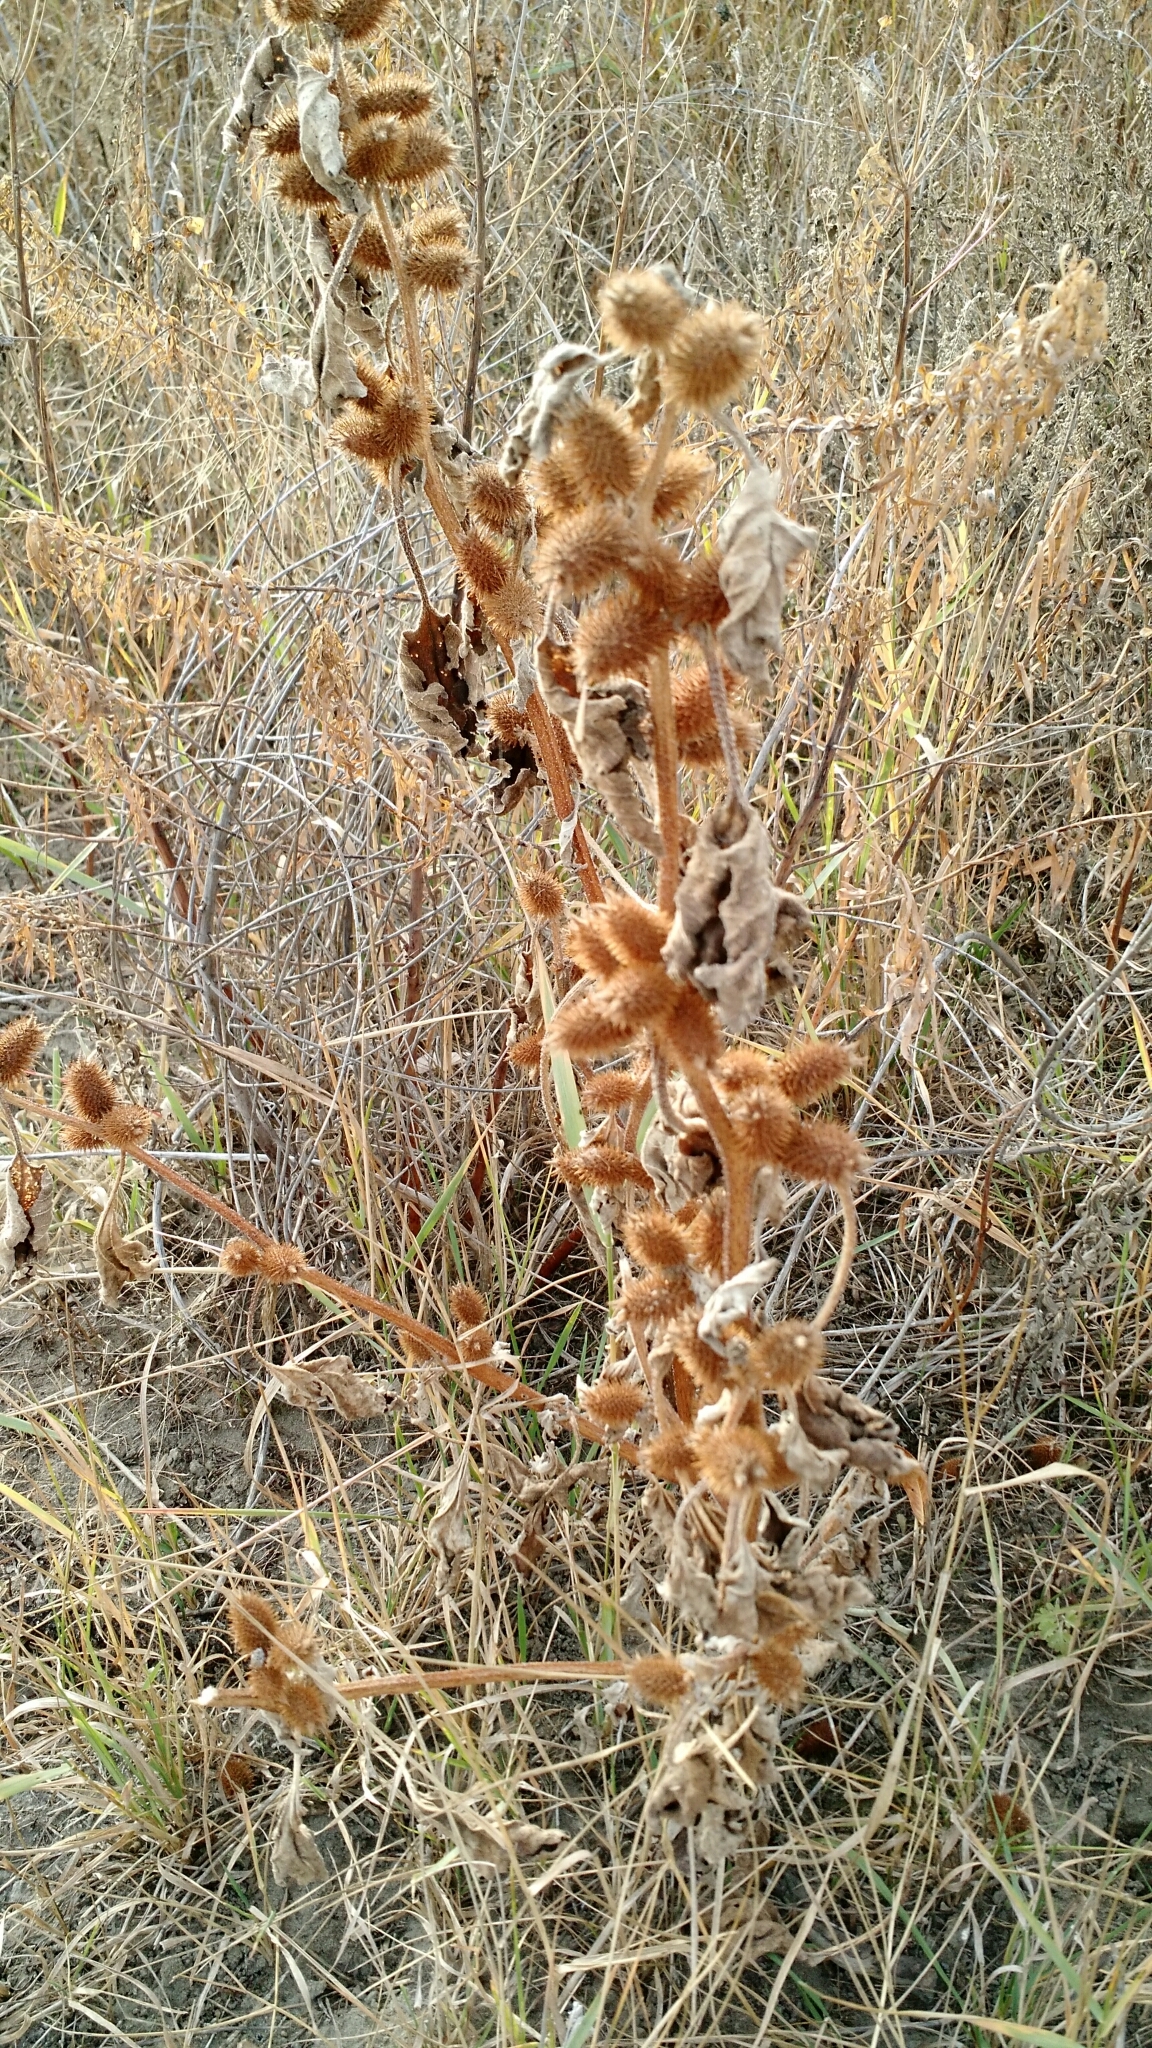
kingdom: Plantae
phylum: Tracheophyta
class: Magnoliopsida
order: Asterales
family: Asteraceae
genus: Xanthium
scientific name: Xanthium strumarium
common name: Rough cocklebur
